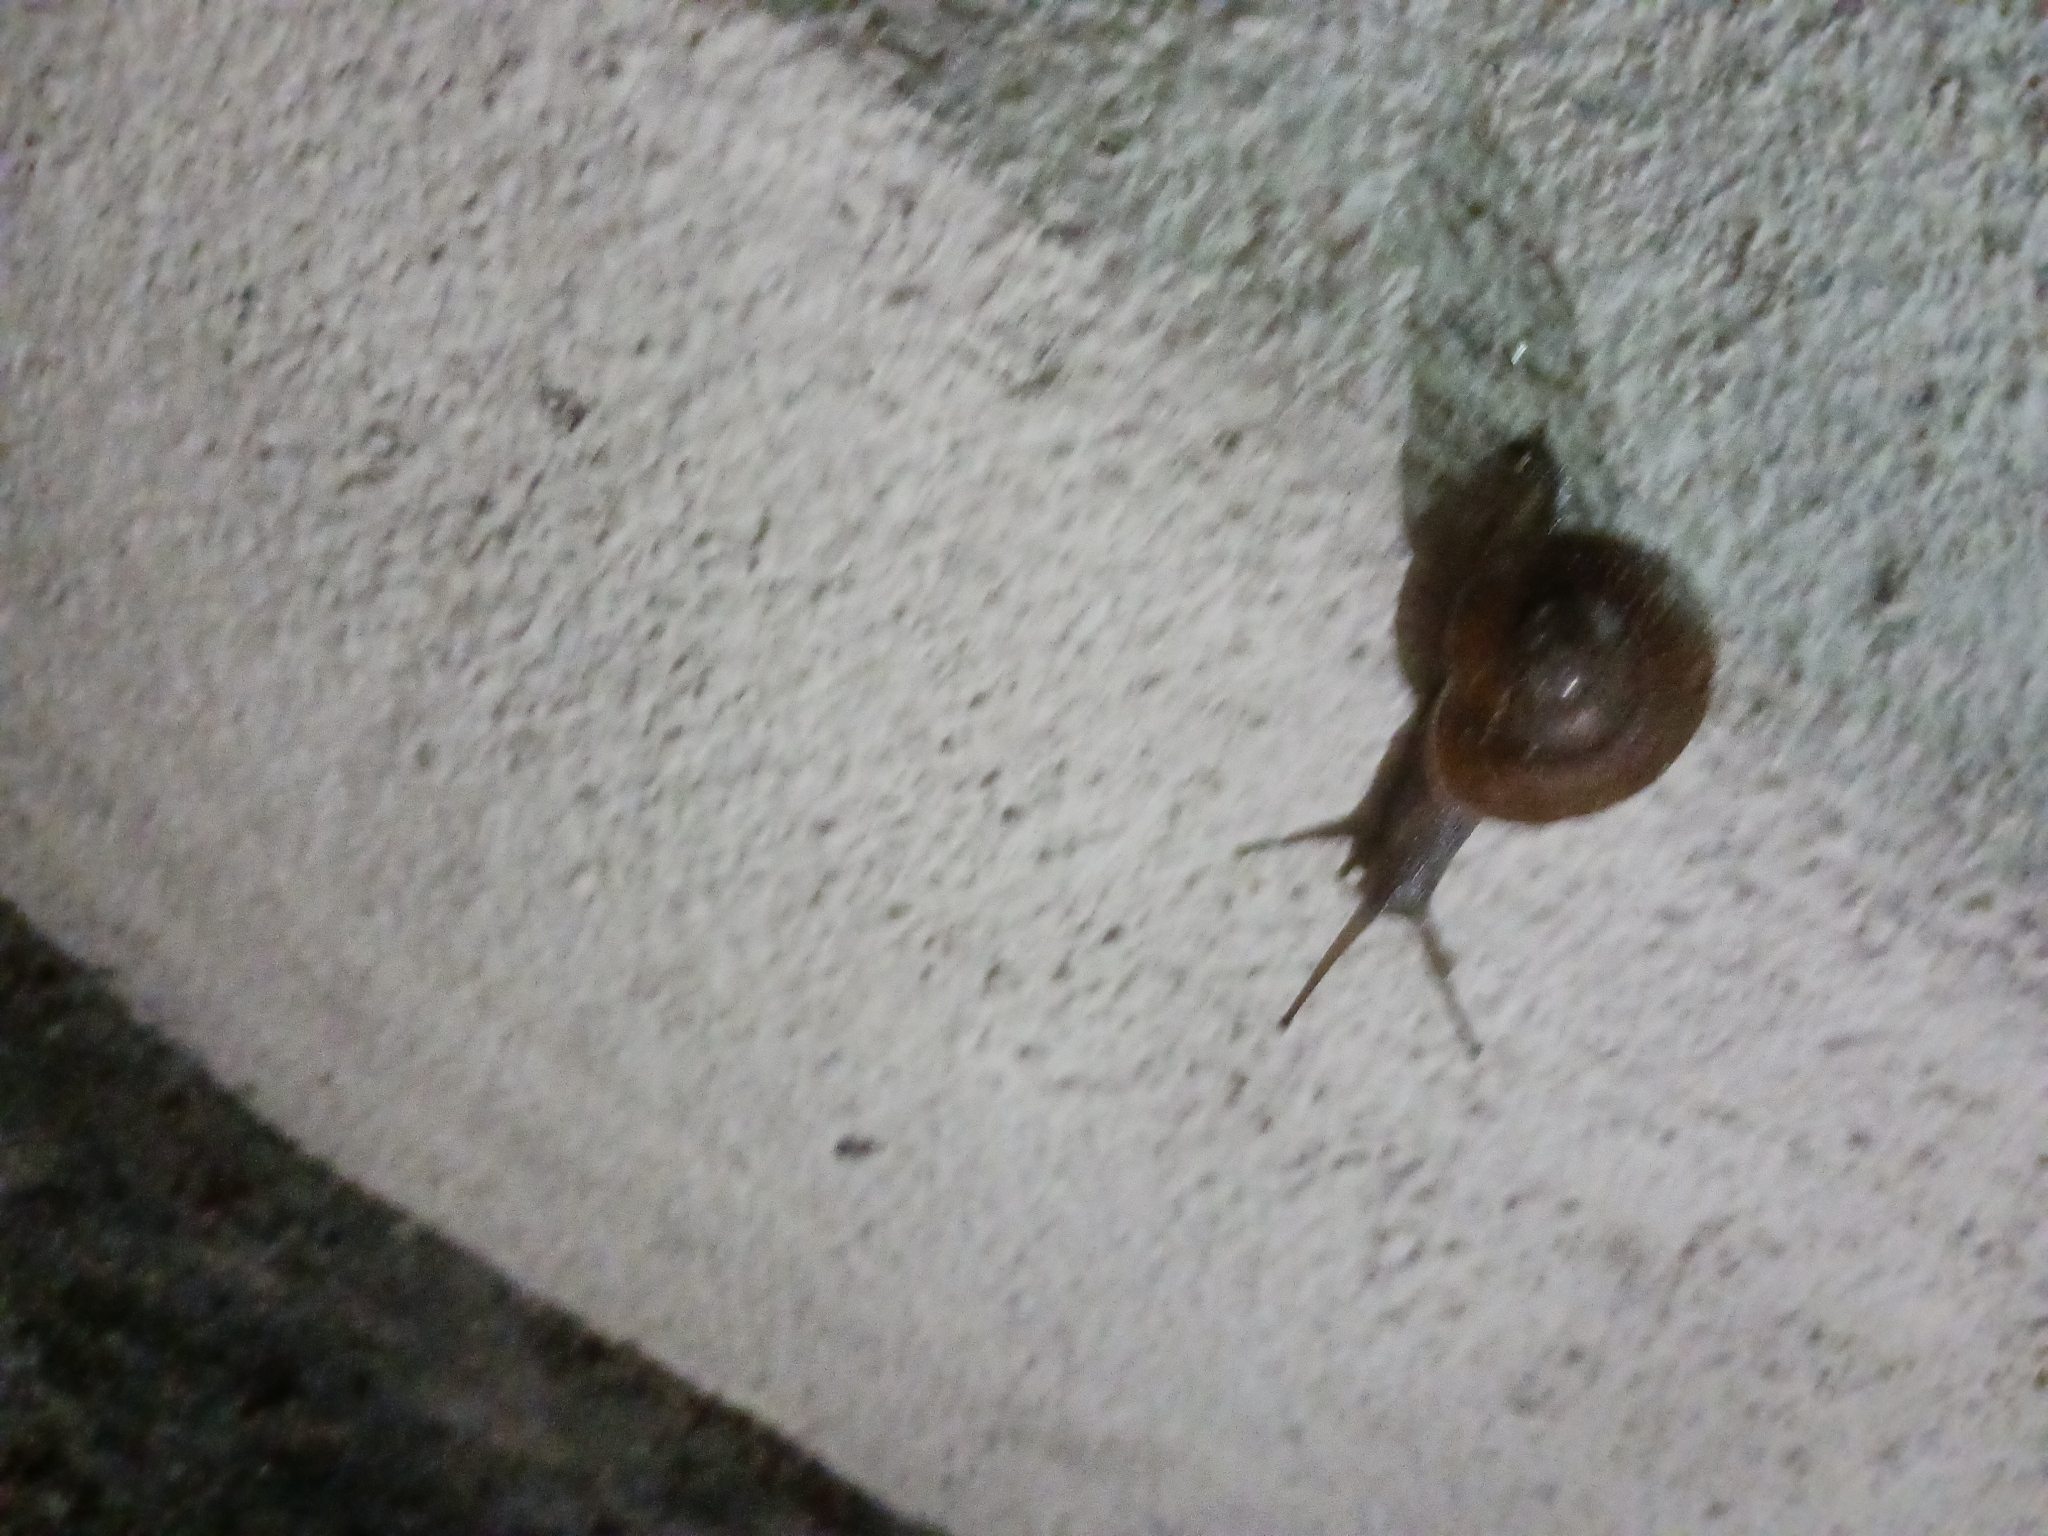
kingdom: Animalia
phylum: Mollusca
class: Gastropoda
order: Stylommatophora
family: Zachrysiidae
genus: Zachrysia
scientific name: Zachrysia provisoria
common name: Garden zachrysia
